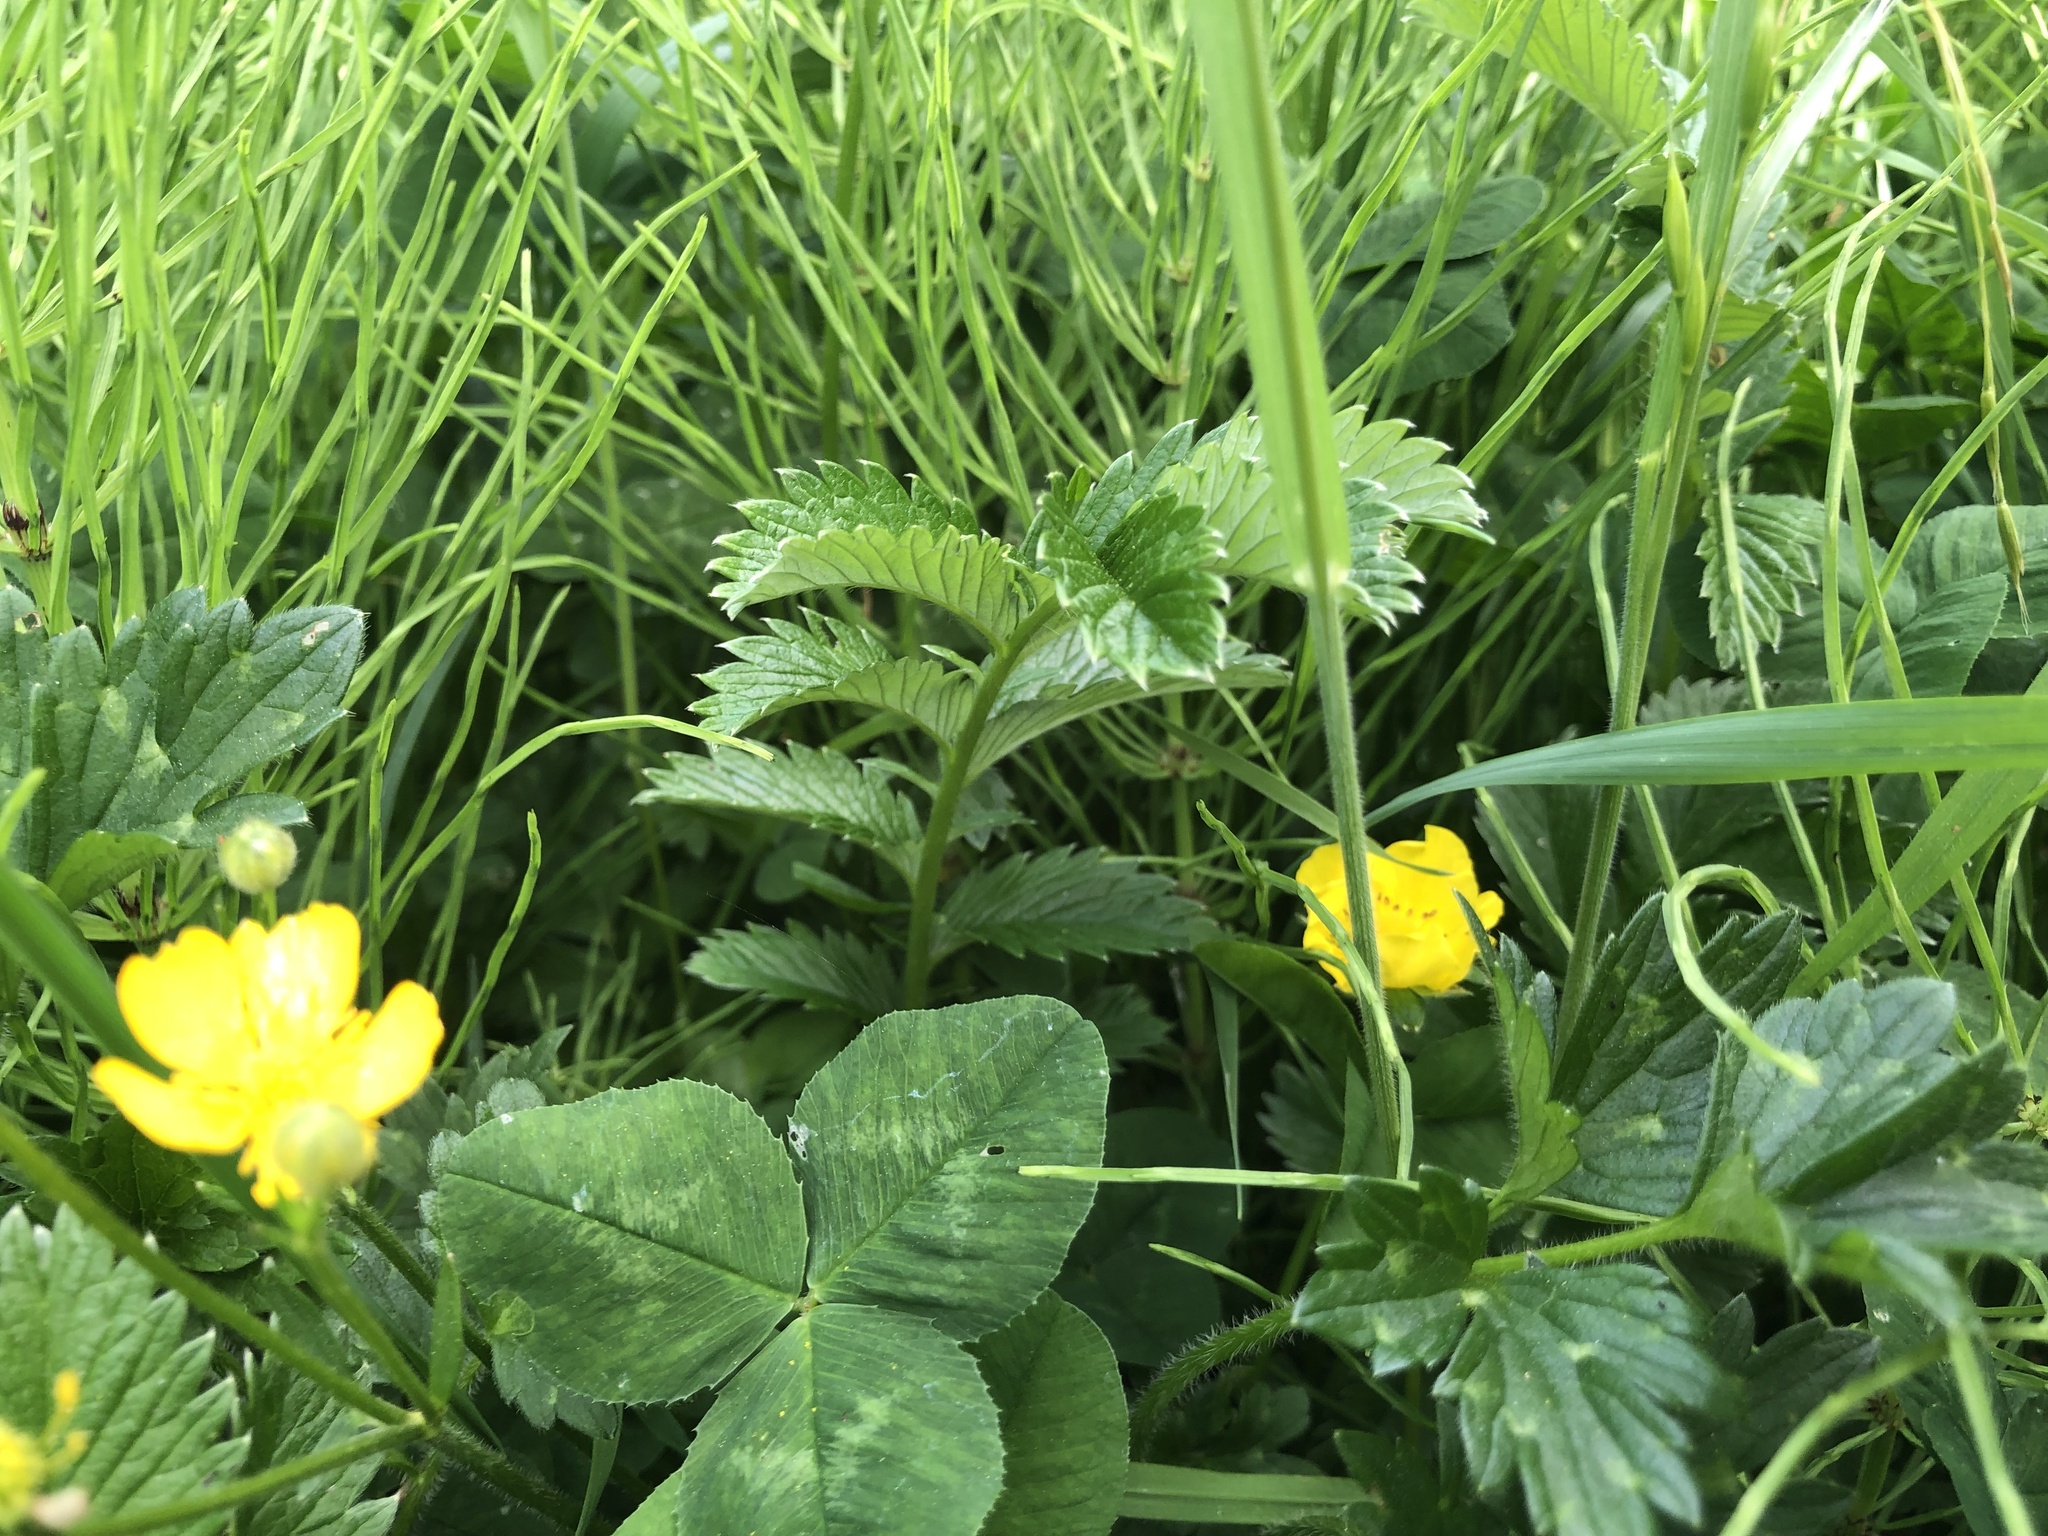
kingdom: Plantae
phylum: Tracheophyta
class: Magnoliopsida
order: Rosales
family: Rosaceae
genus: Argentina
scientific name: Argentina anserina
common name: Common silverweed
